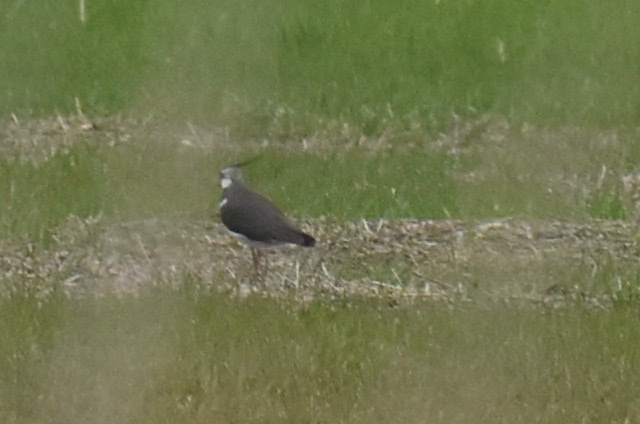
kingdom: Animalia
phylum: Chordata
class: Aves
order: Charadriiformes
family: Charadriidae
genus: Vanellus
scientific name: Vanellus vanellus
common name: Northern lapwing
